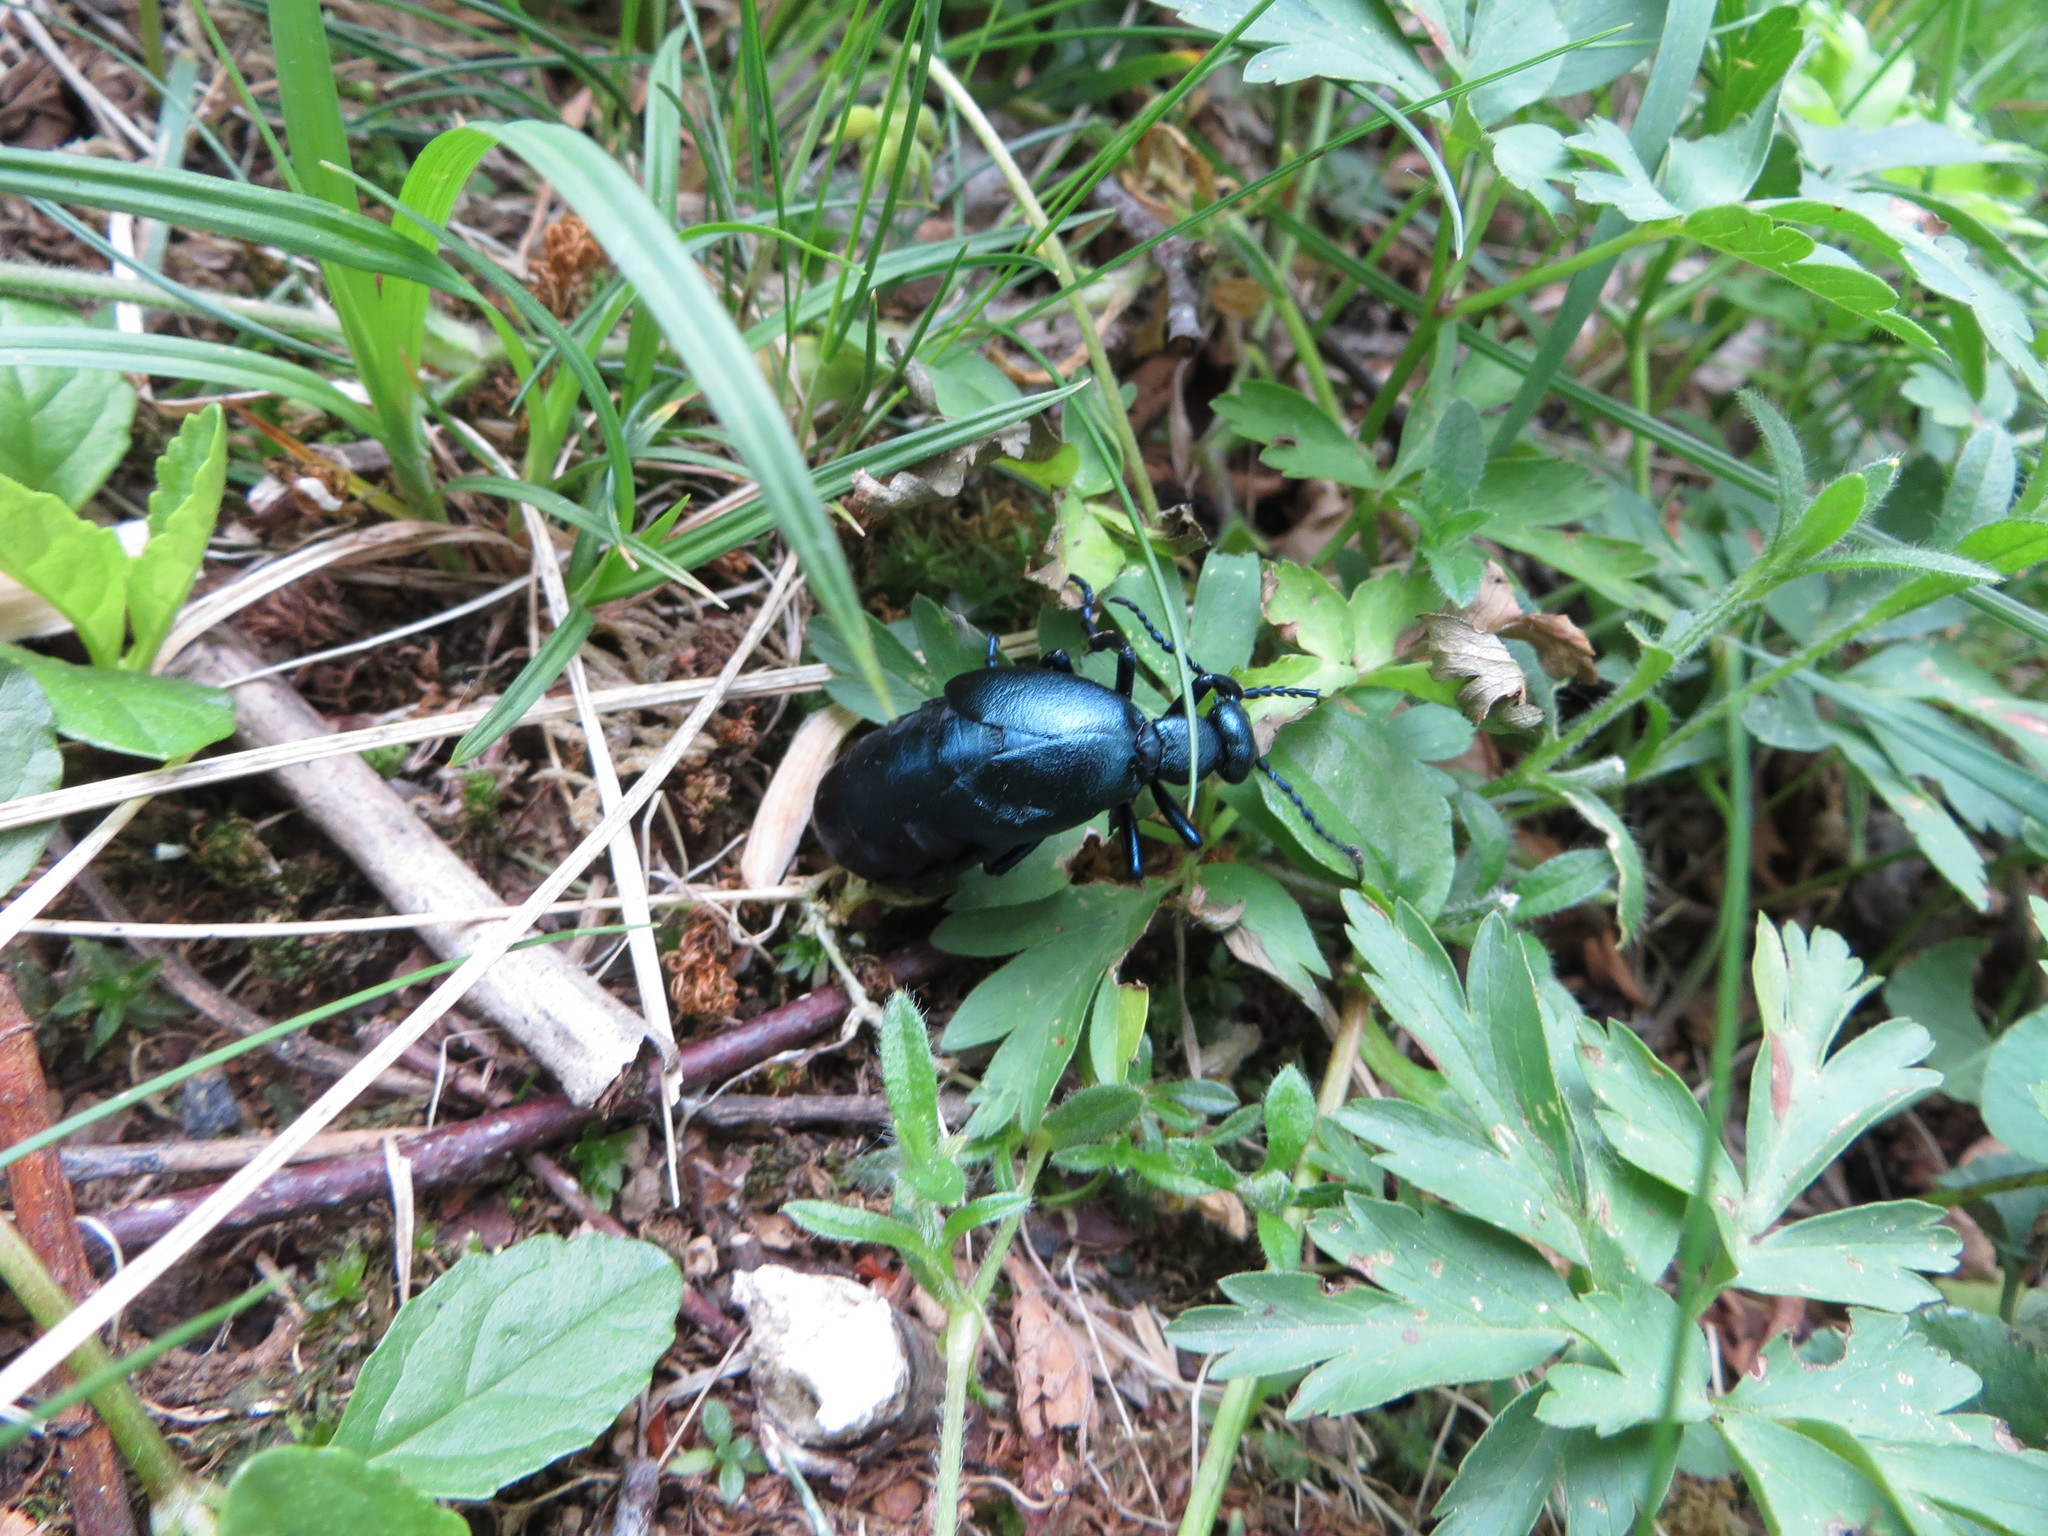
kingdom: Animalia
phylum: Arthropoda
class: Insecta
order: Coleoptera
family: Meloidae
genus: Meloe
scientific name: Meloe violaceus
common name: Violet oil-beetle
